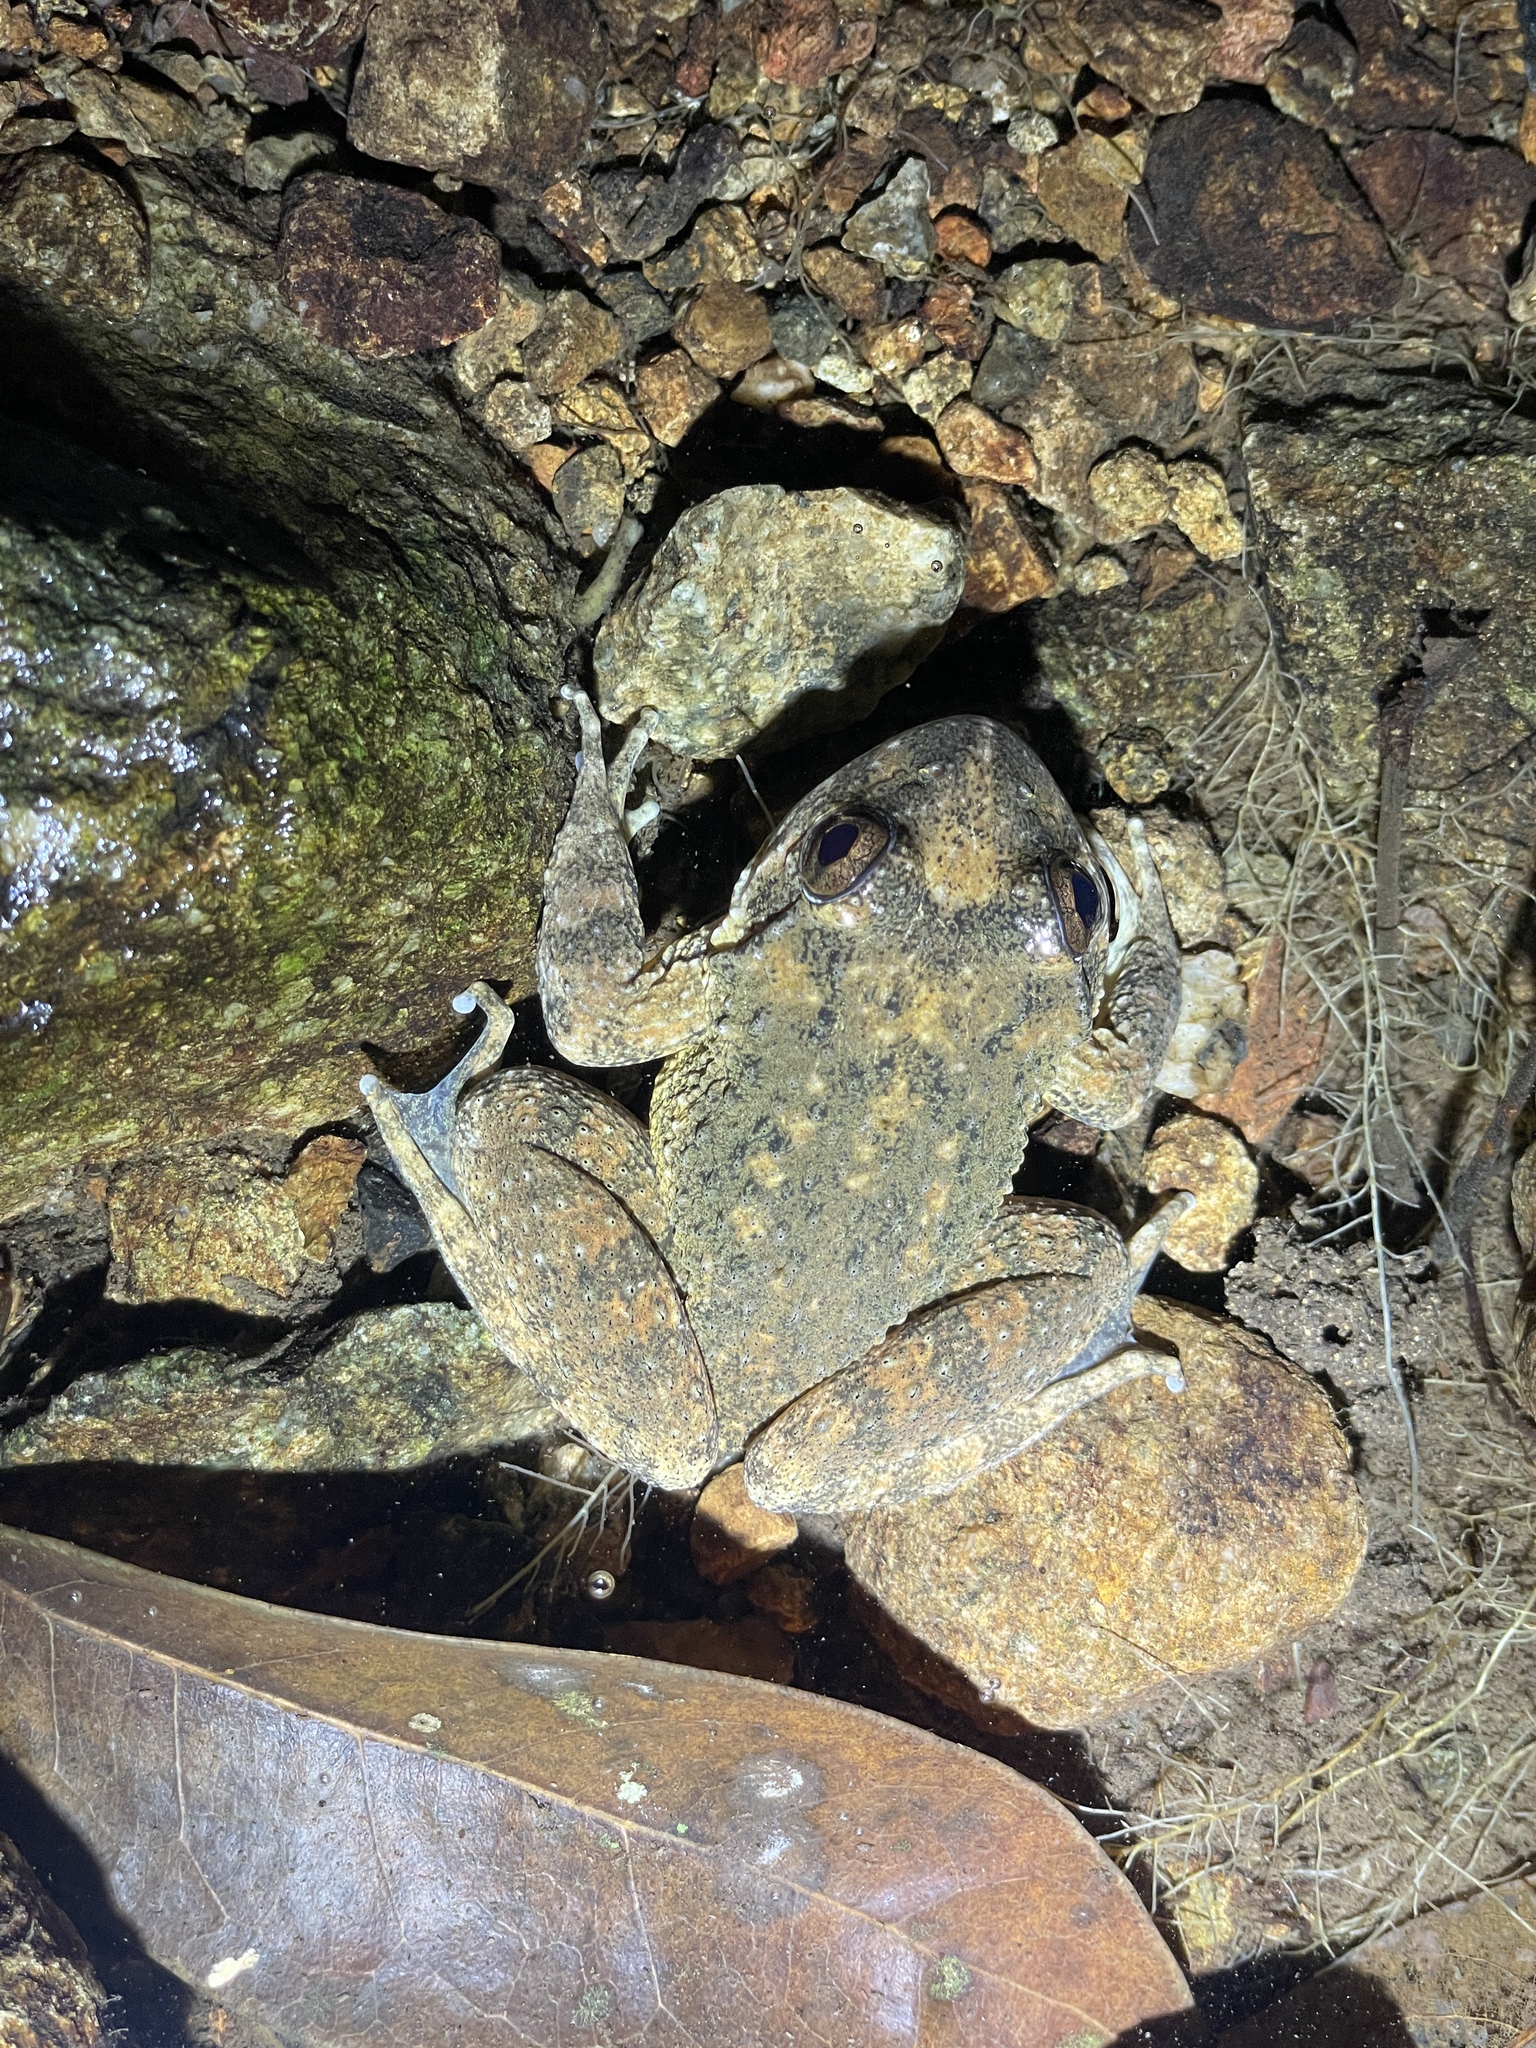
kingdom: Animalia
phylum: Chordata
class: Amphibia
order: Anura
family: Dicroglossidae
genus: Quasipaa
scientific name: Quasipaa exilispinosa
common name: Hong kong paa frog
